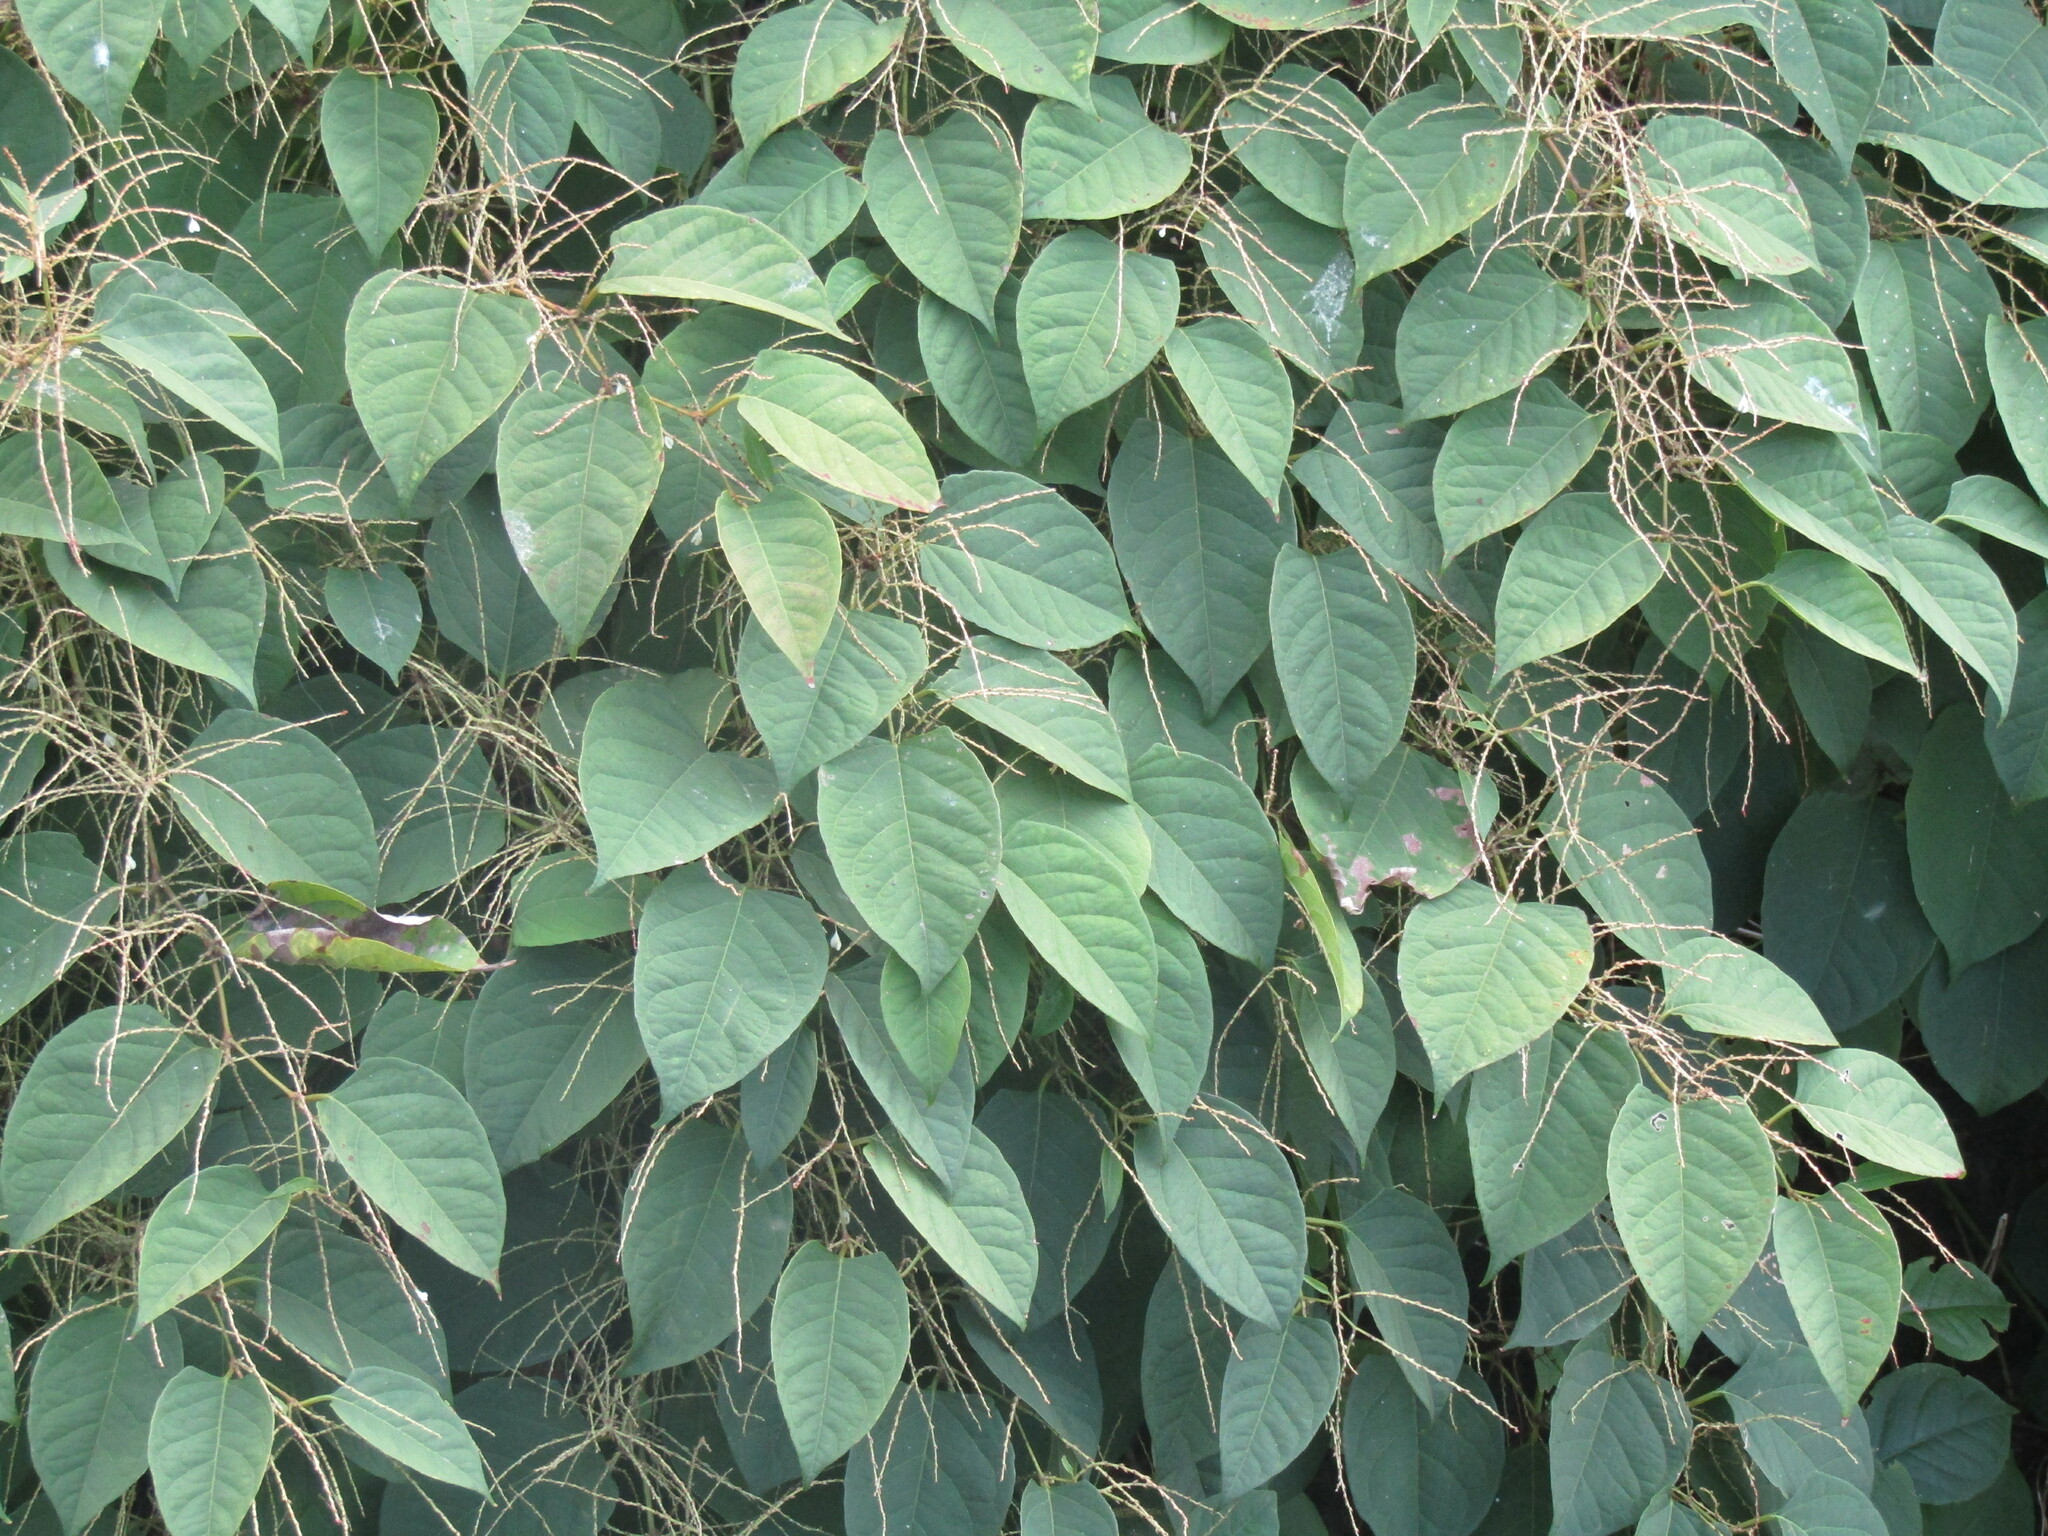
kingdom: Plantae
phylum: Tracheophyta
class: Magnoliopsida
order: Caryophyllales
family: Polygonaceae
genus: Reynoutria
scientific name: Reynoutria japonica
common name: Japanese knotweed
